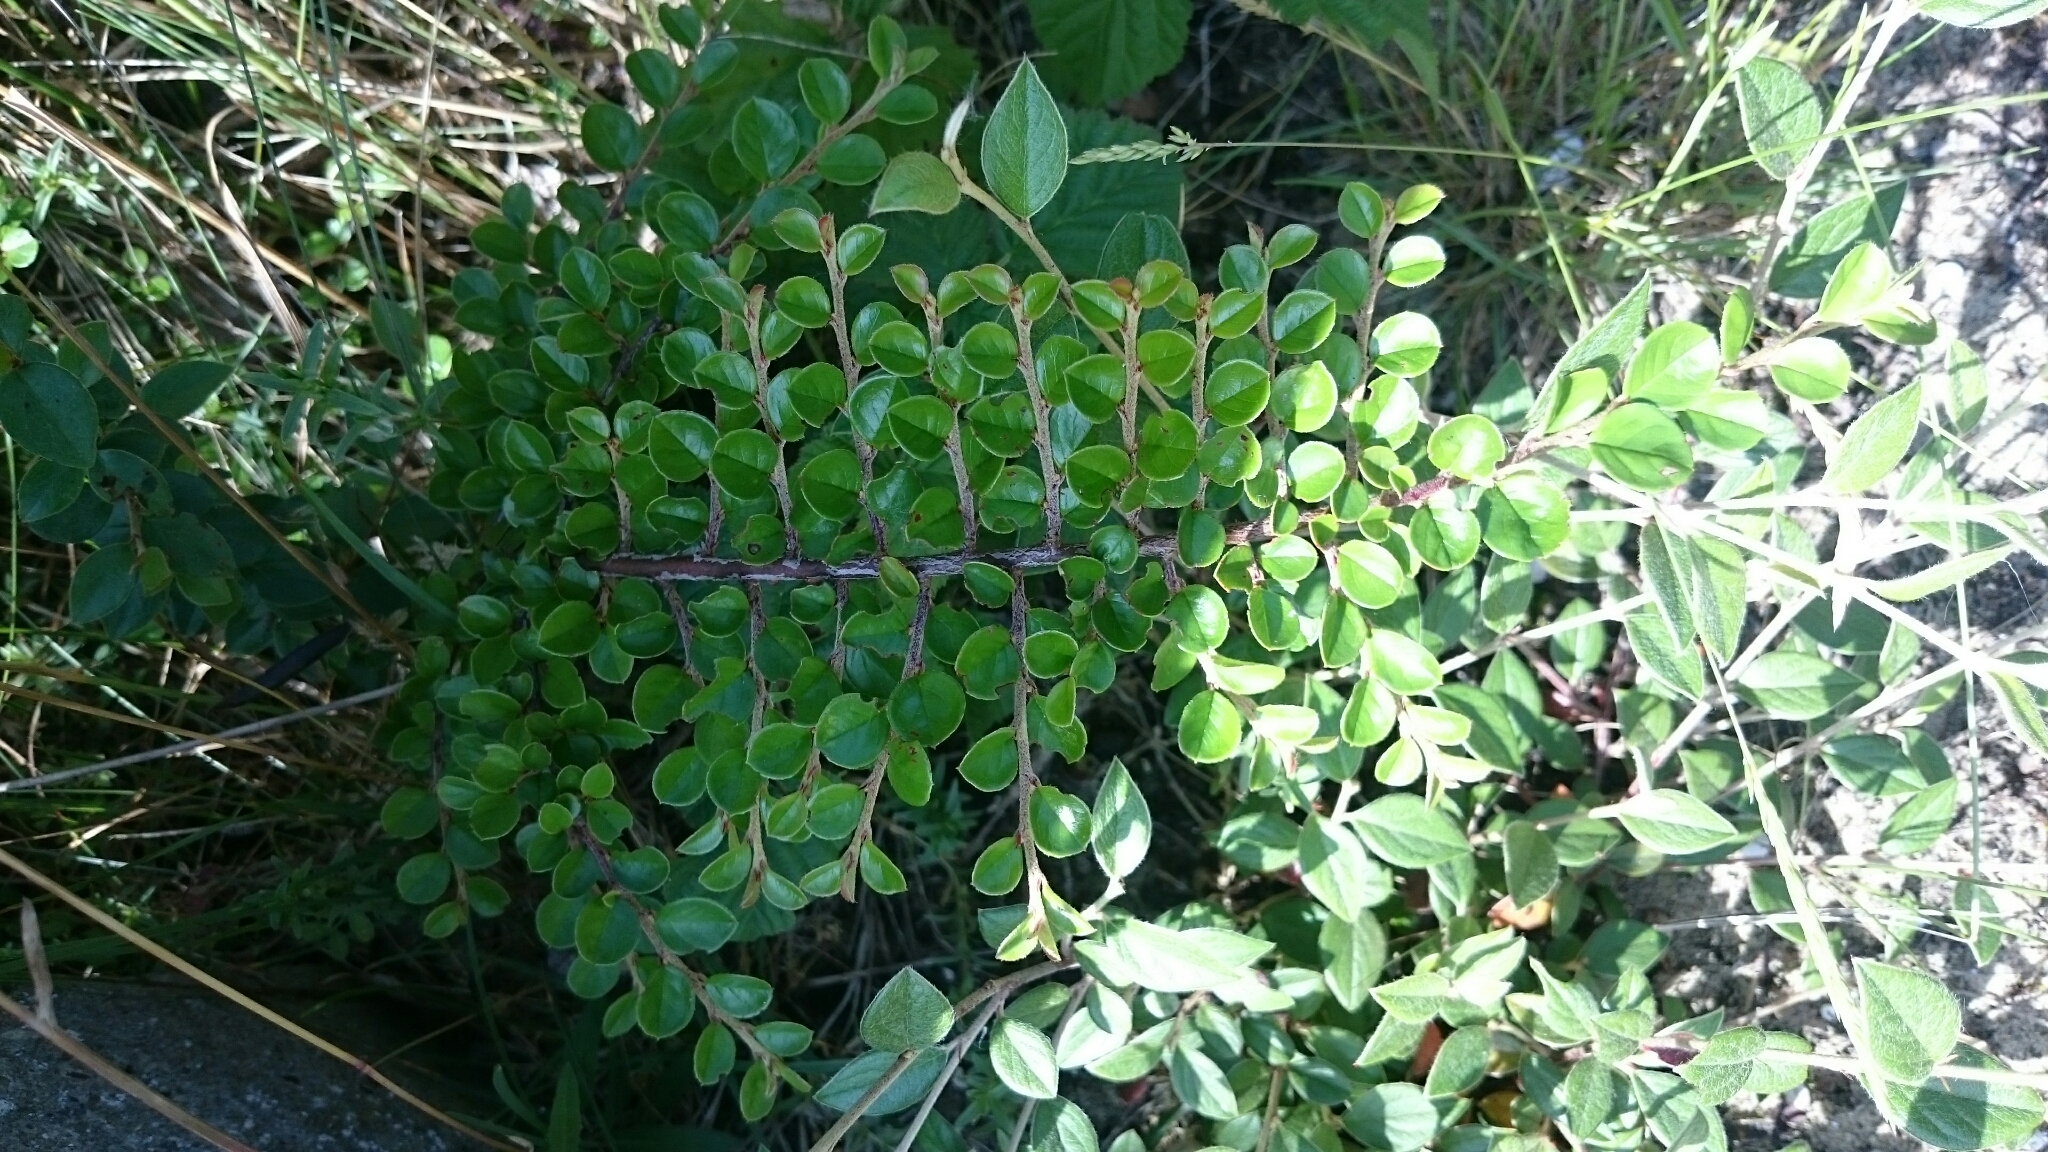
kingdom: Plantae
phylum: Tracheophyta
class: Magnoliopsida
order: Rosales
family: Rosaceae
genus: Cotoneaster
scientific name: Cotoneaster hjelmqvistii
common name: Hjelmqvist's cotoneaster
